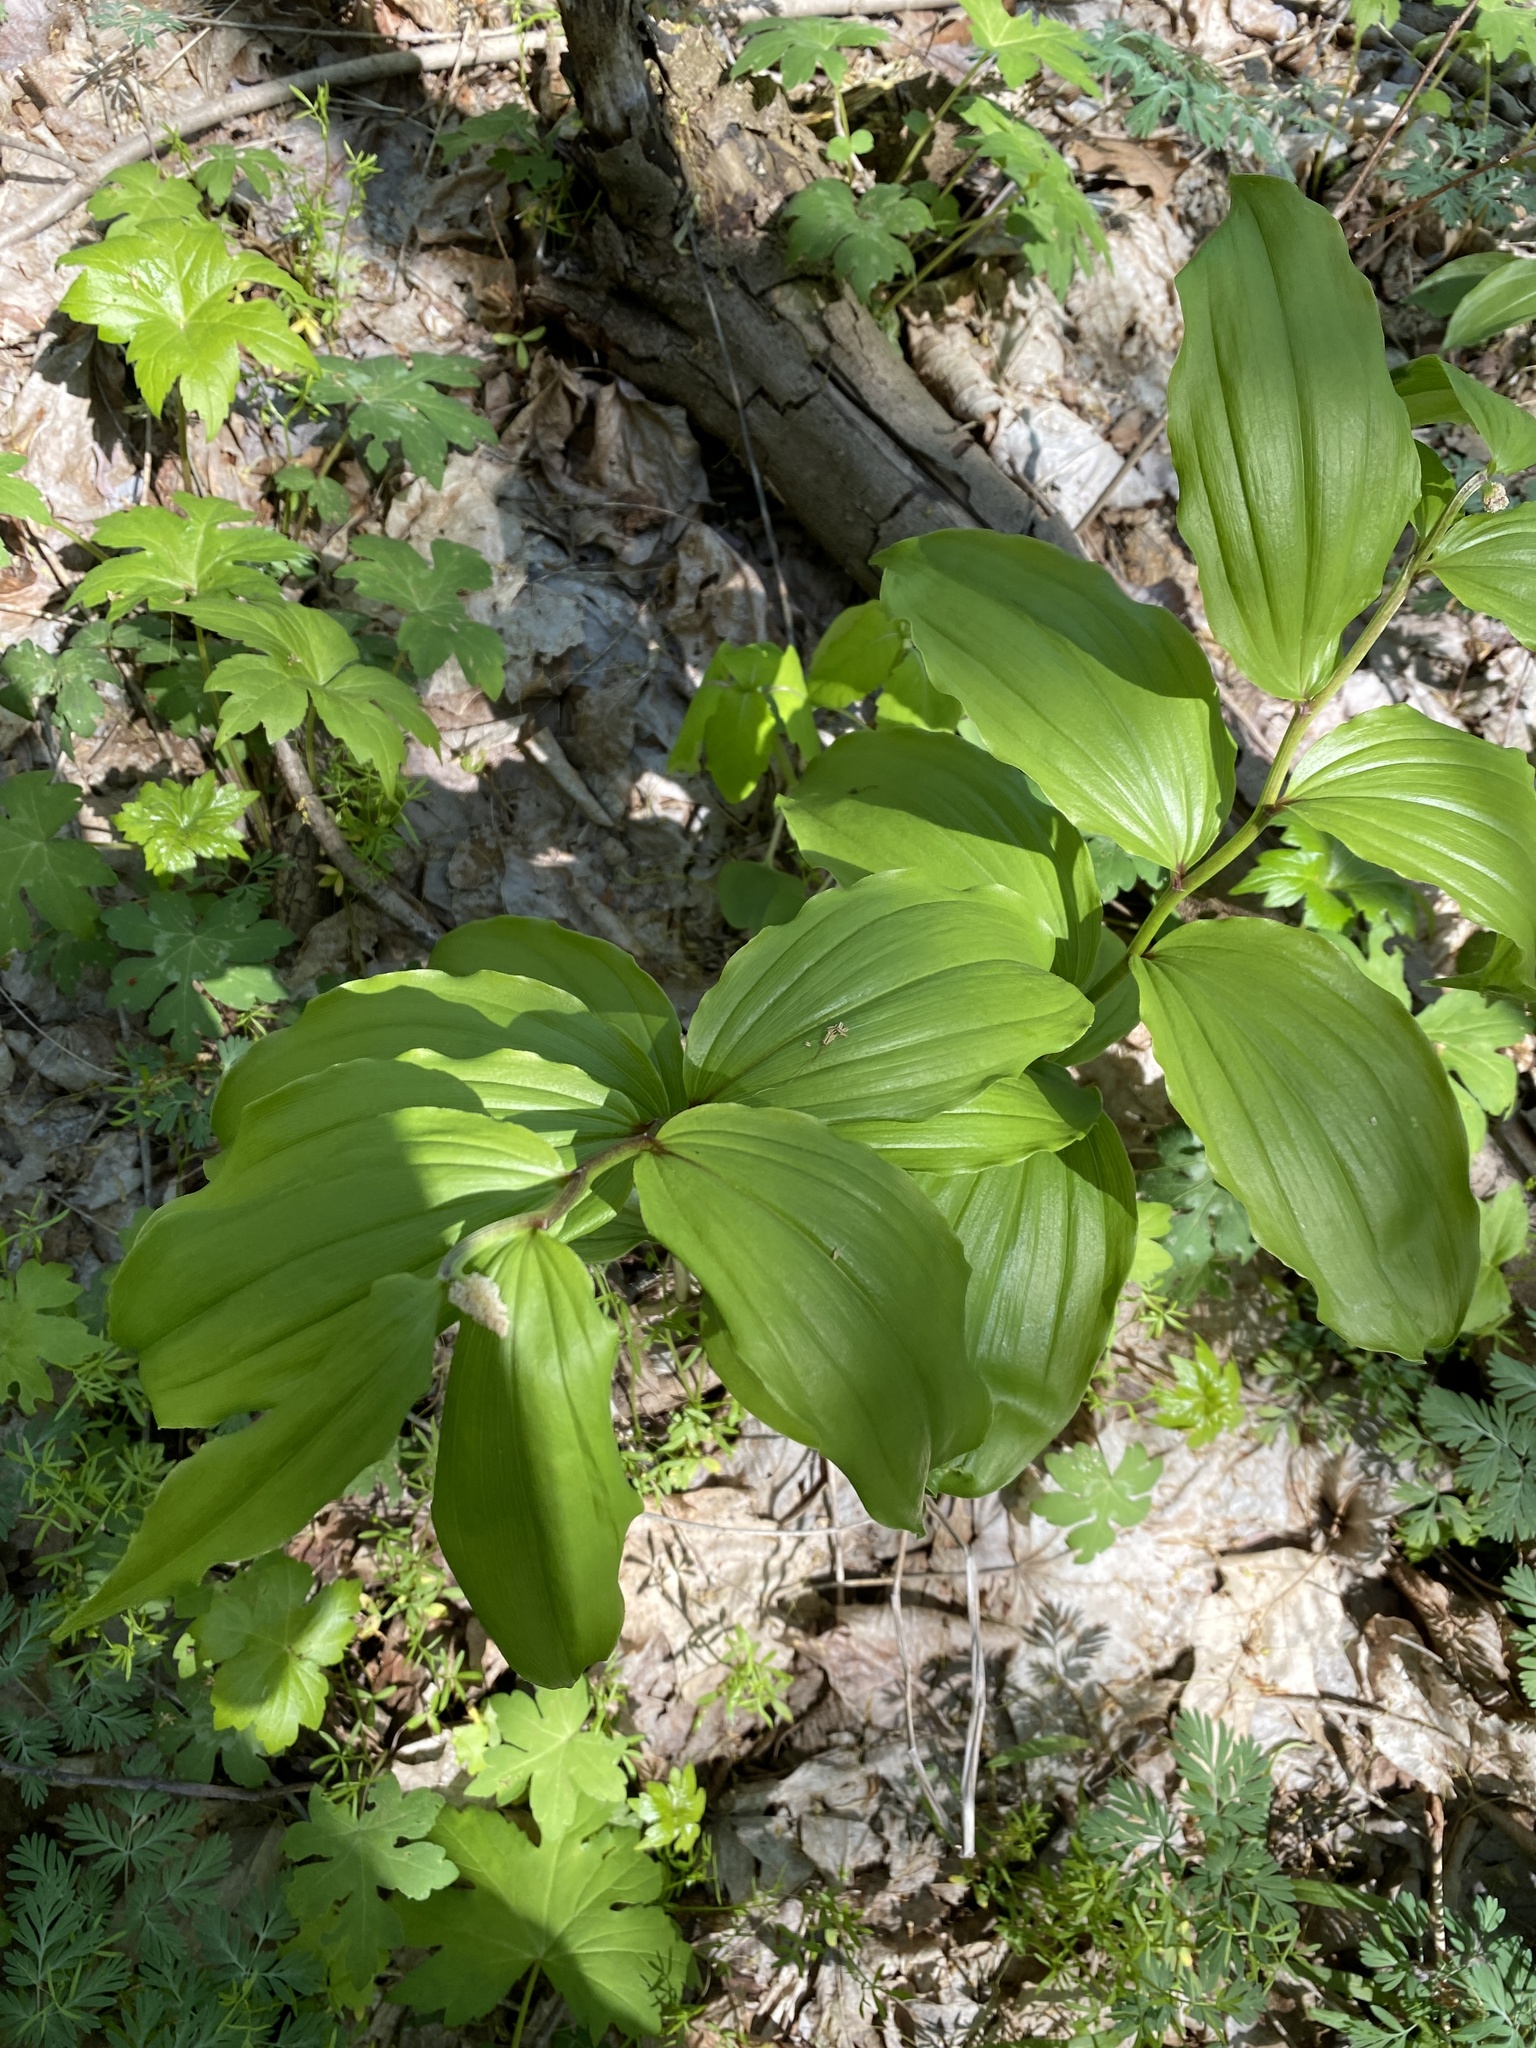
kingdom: Plantae
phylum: Tracheophyta
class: Liliopsida
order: Asparagales
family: Asparagaceae
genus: Maianthemum
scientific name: Maianthemum racemosum
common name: False spikenard
